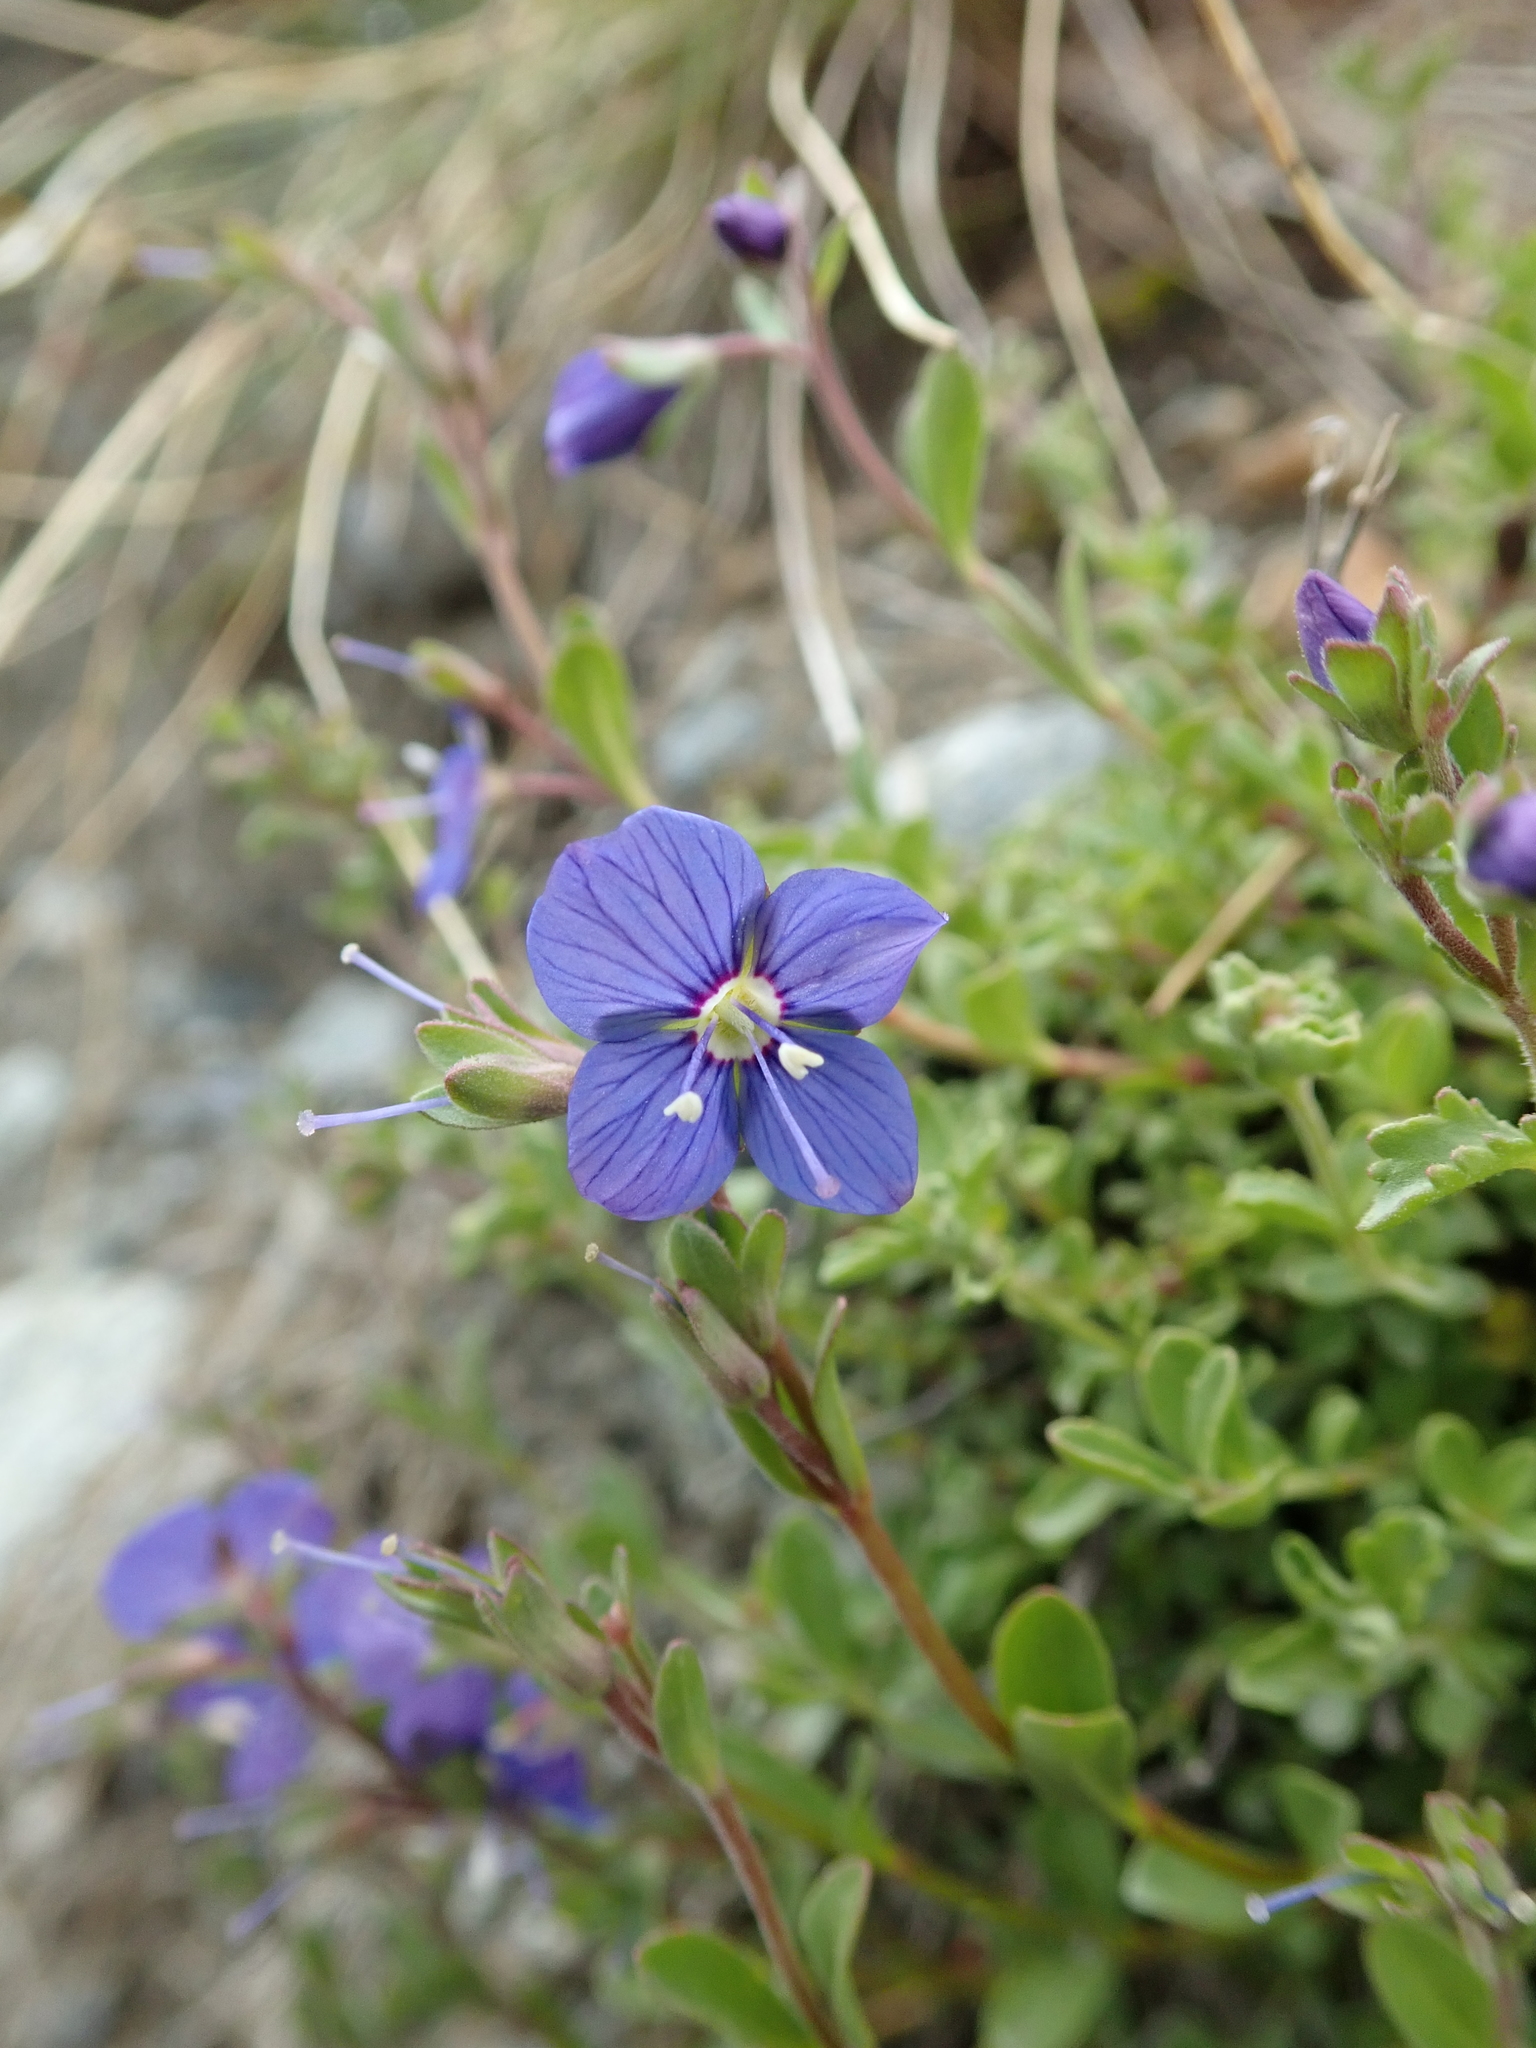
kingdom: Plantae
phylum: Tracheophyta
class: Magnoliopsida
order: Lamiales
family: Plantaginaceae
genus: Veronica
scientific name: Veronica fruticans
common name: Rock speedwell
